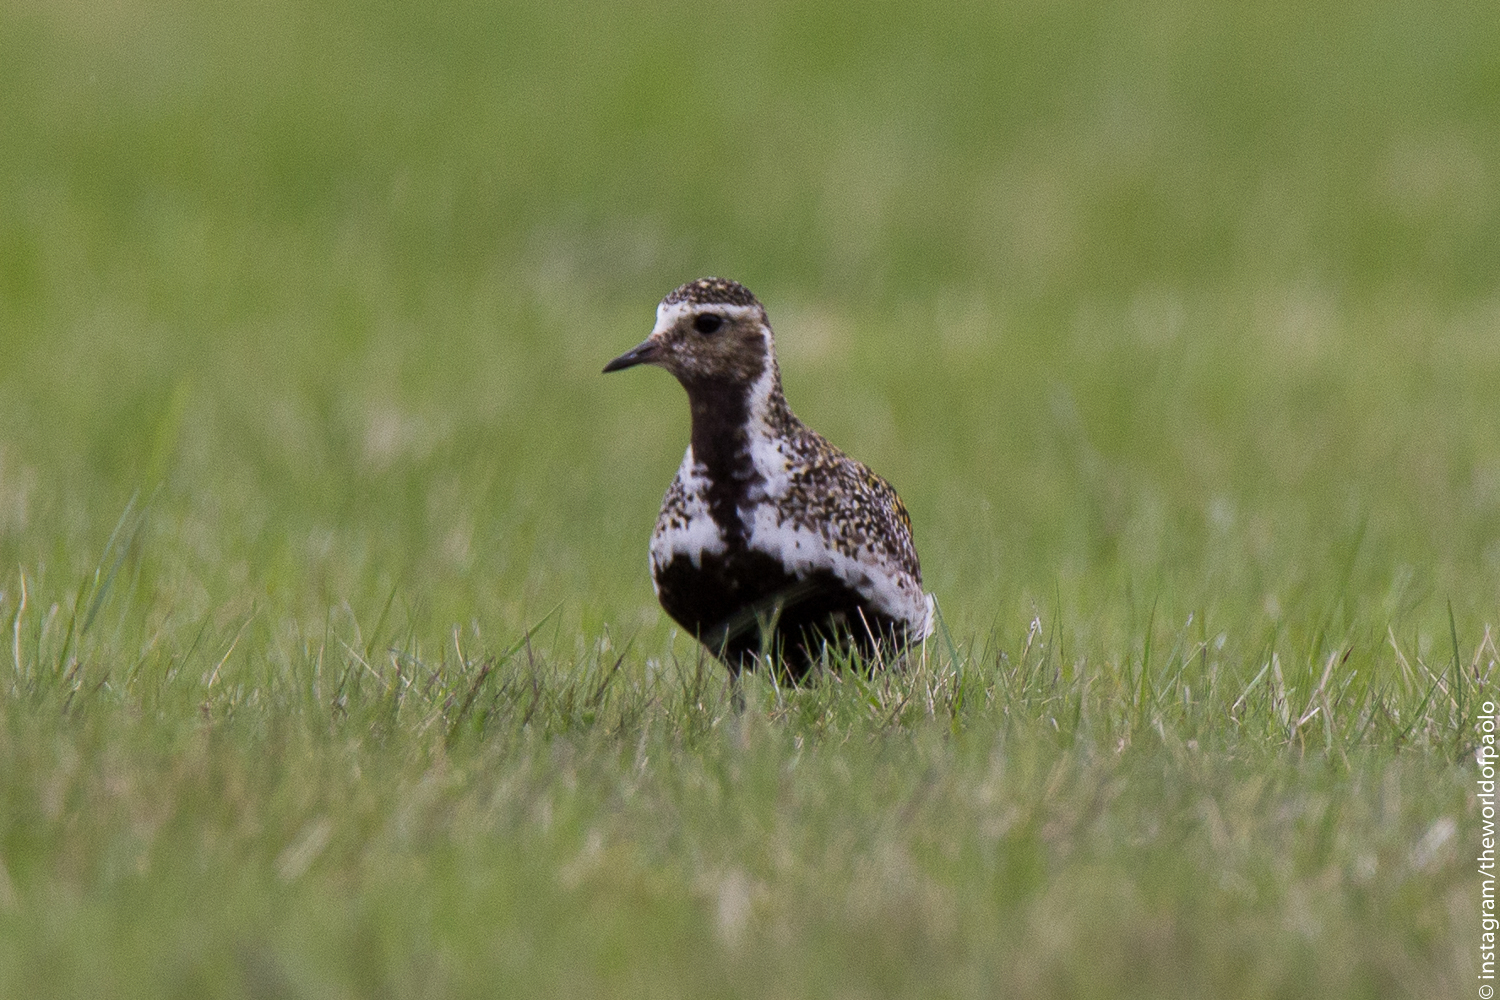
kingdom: Animalia
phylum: Chordata
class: Aves
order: Charadriiformes
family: Charadriidae
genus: Pluvialis
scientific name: Pluvialis apricaria
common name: European golden plover
